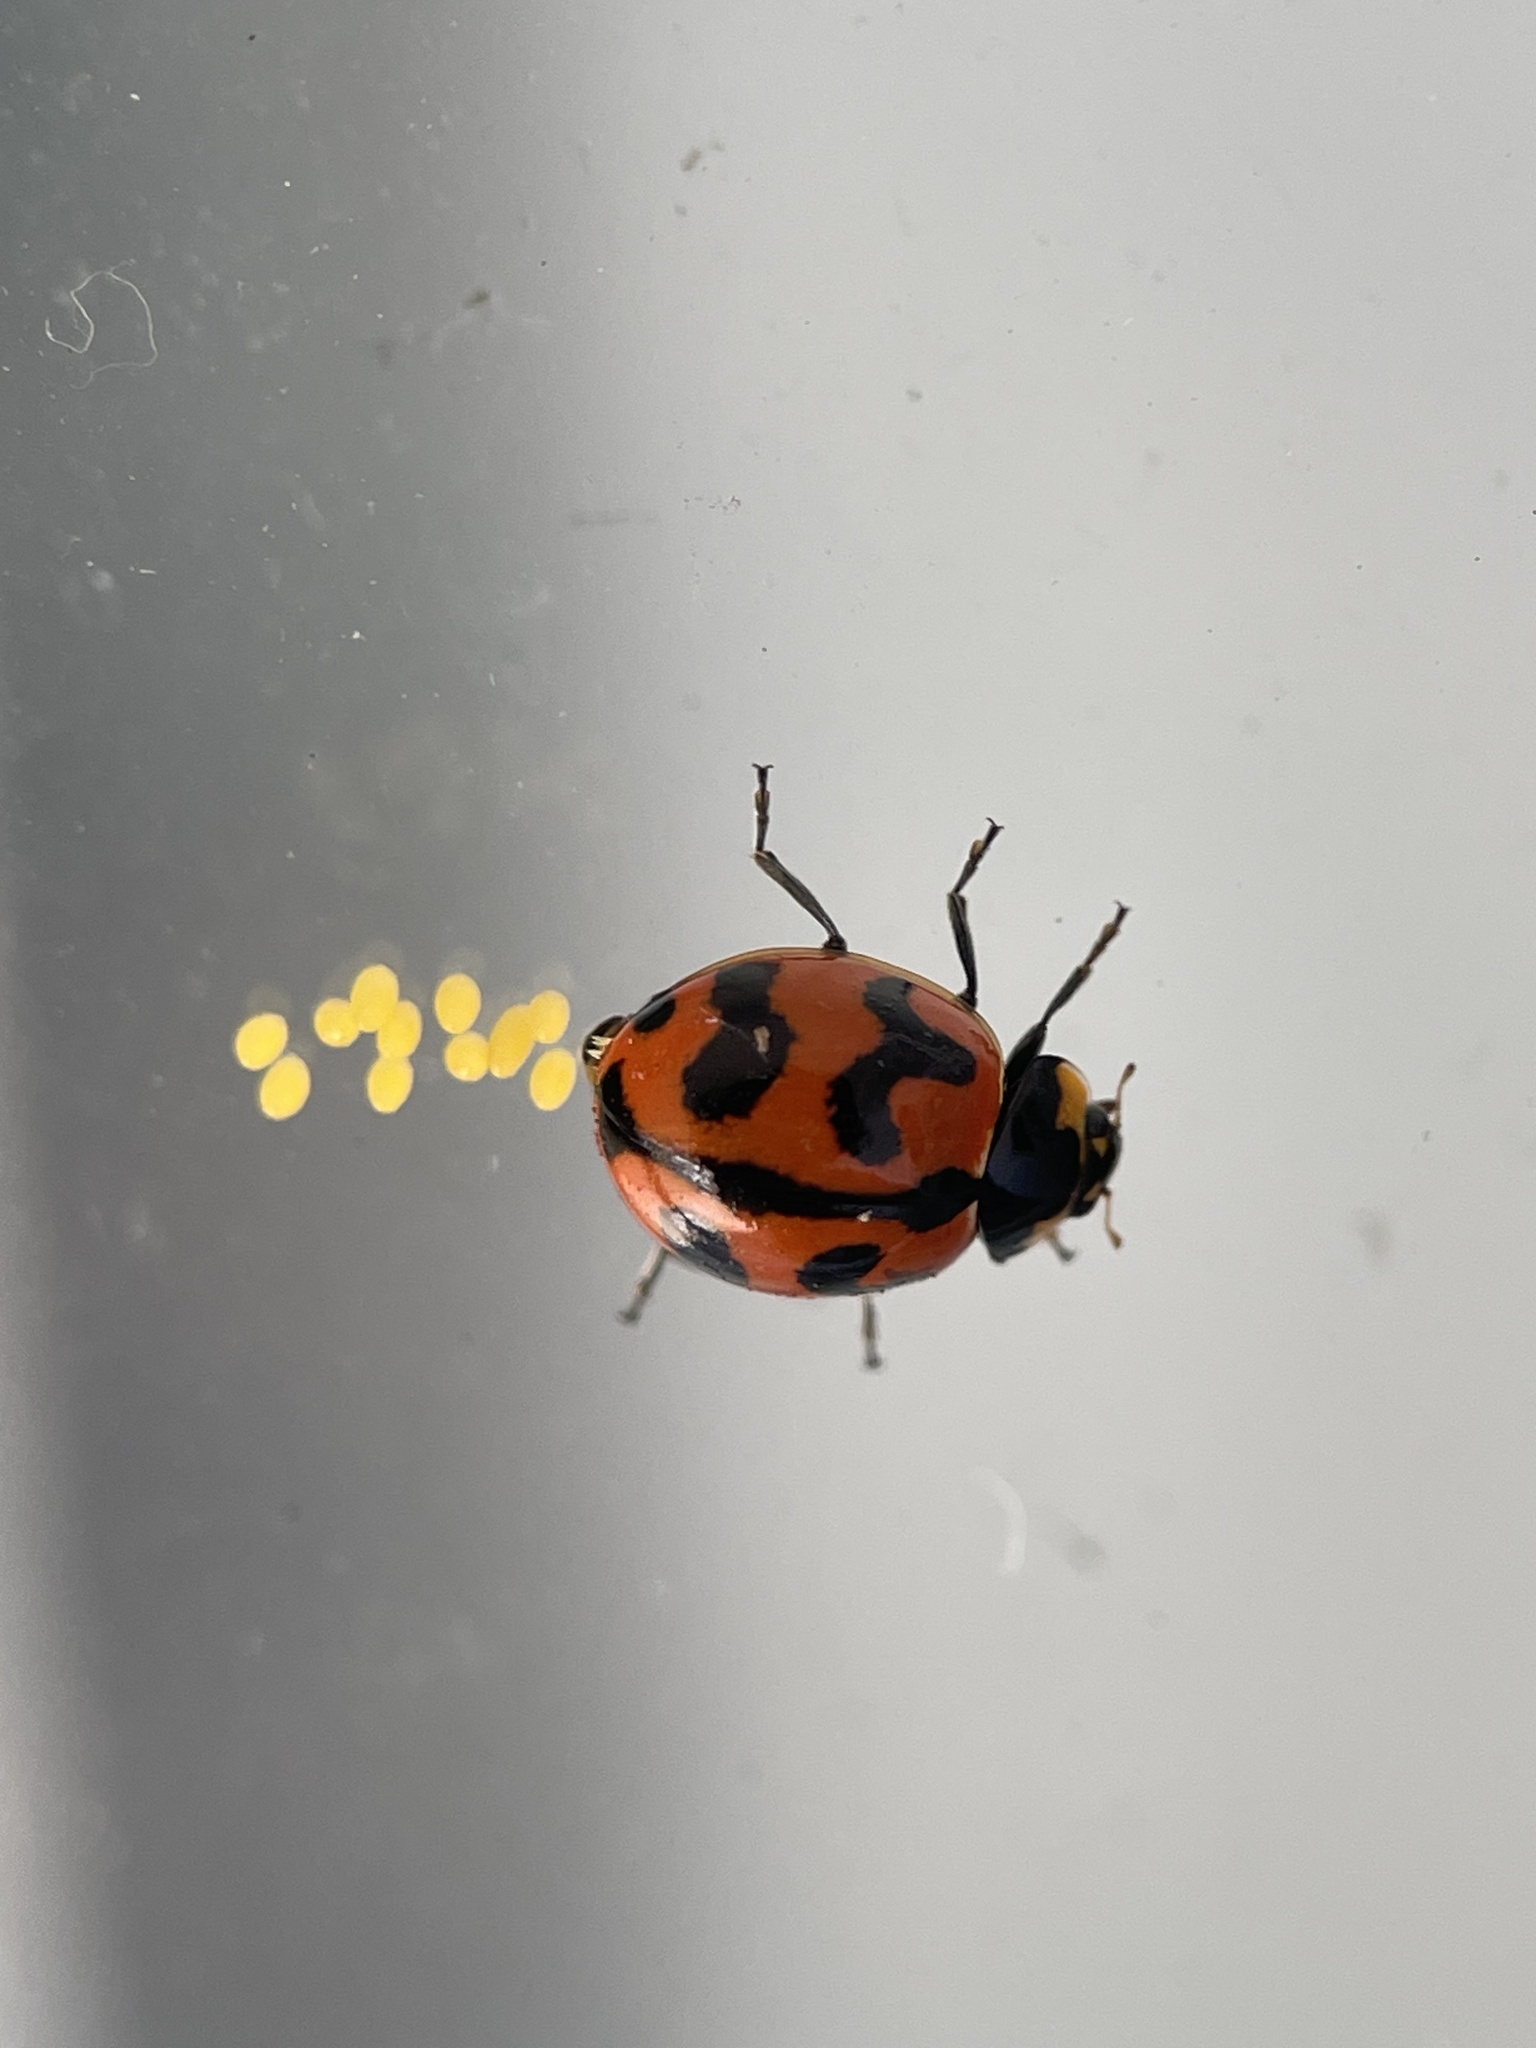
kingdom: Animalia
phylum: Arthropoda
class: Insecta
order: Coleoptera
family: Coccinellidae
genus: Coccinella
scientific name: Coccinella transversalis
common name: Transverse lady beetle
